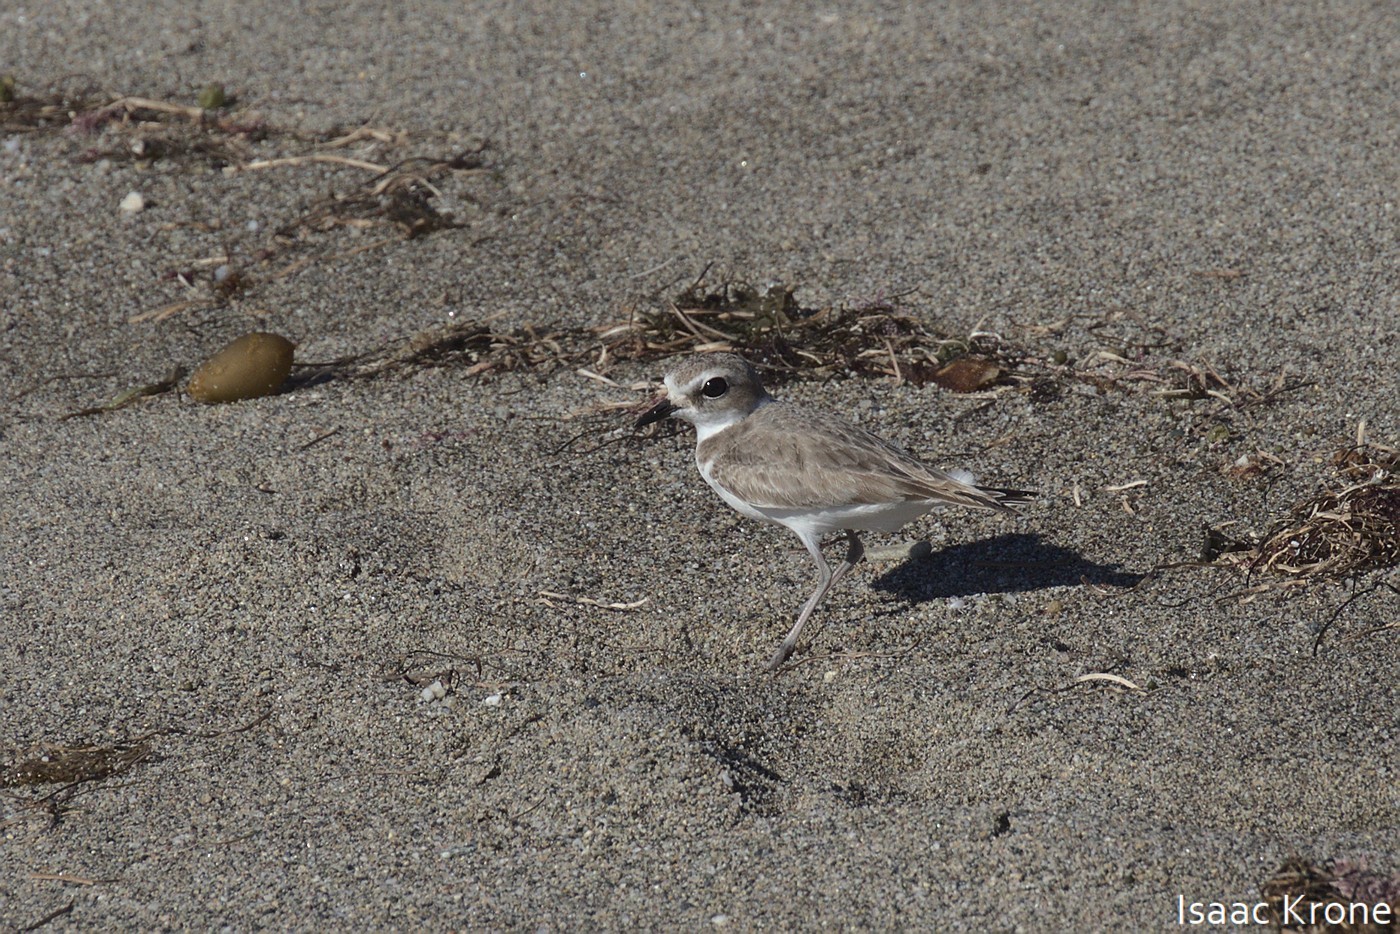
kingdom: Animalia
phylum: Chordata
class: Aves
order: Charadriiformes
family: Charadriidae
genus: Anarhynchus
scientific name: Anarhynchus
